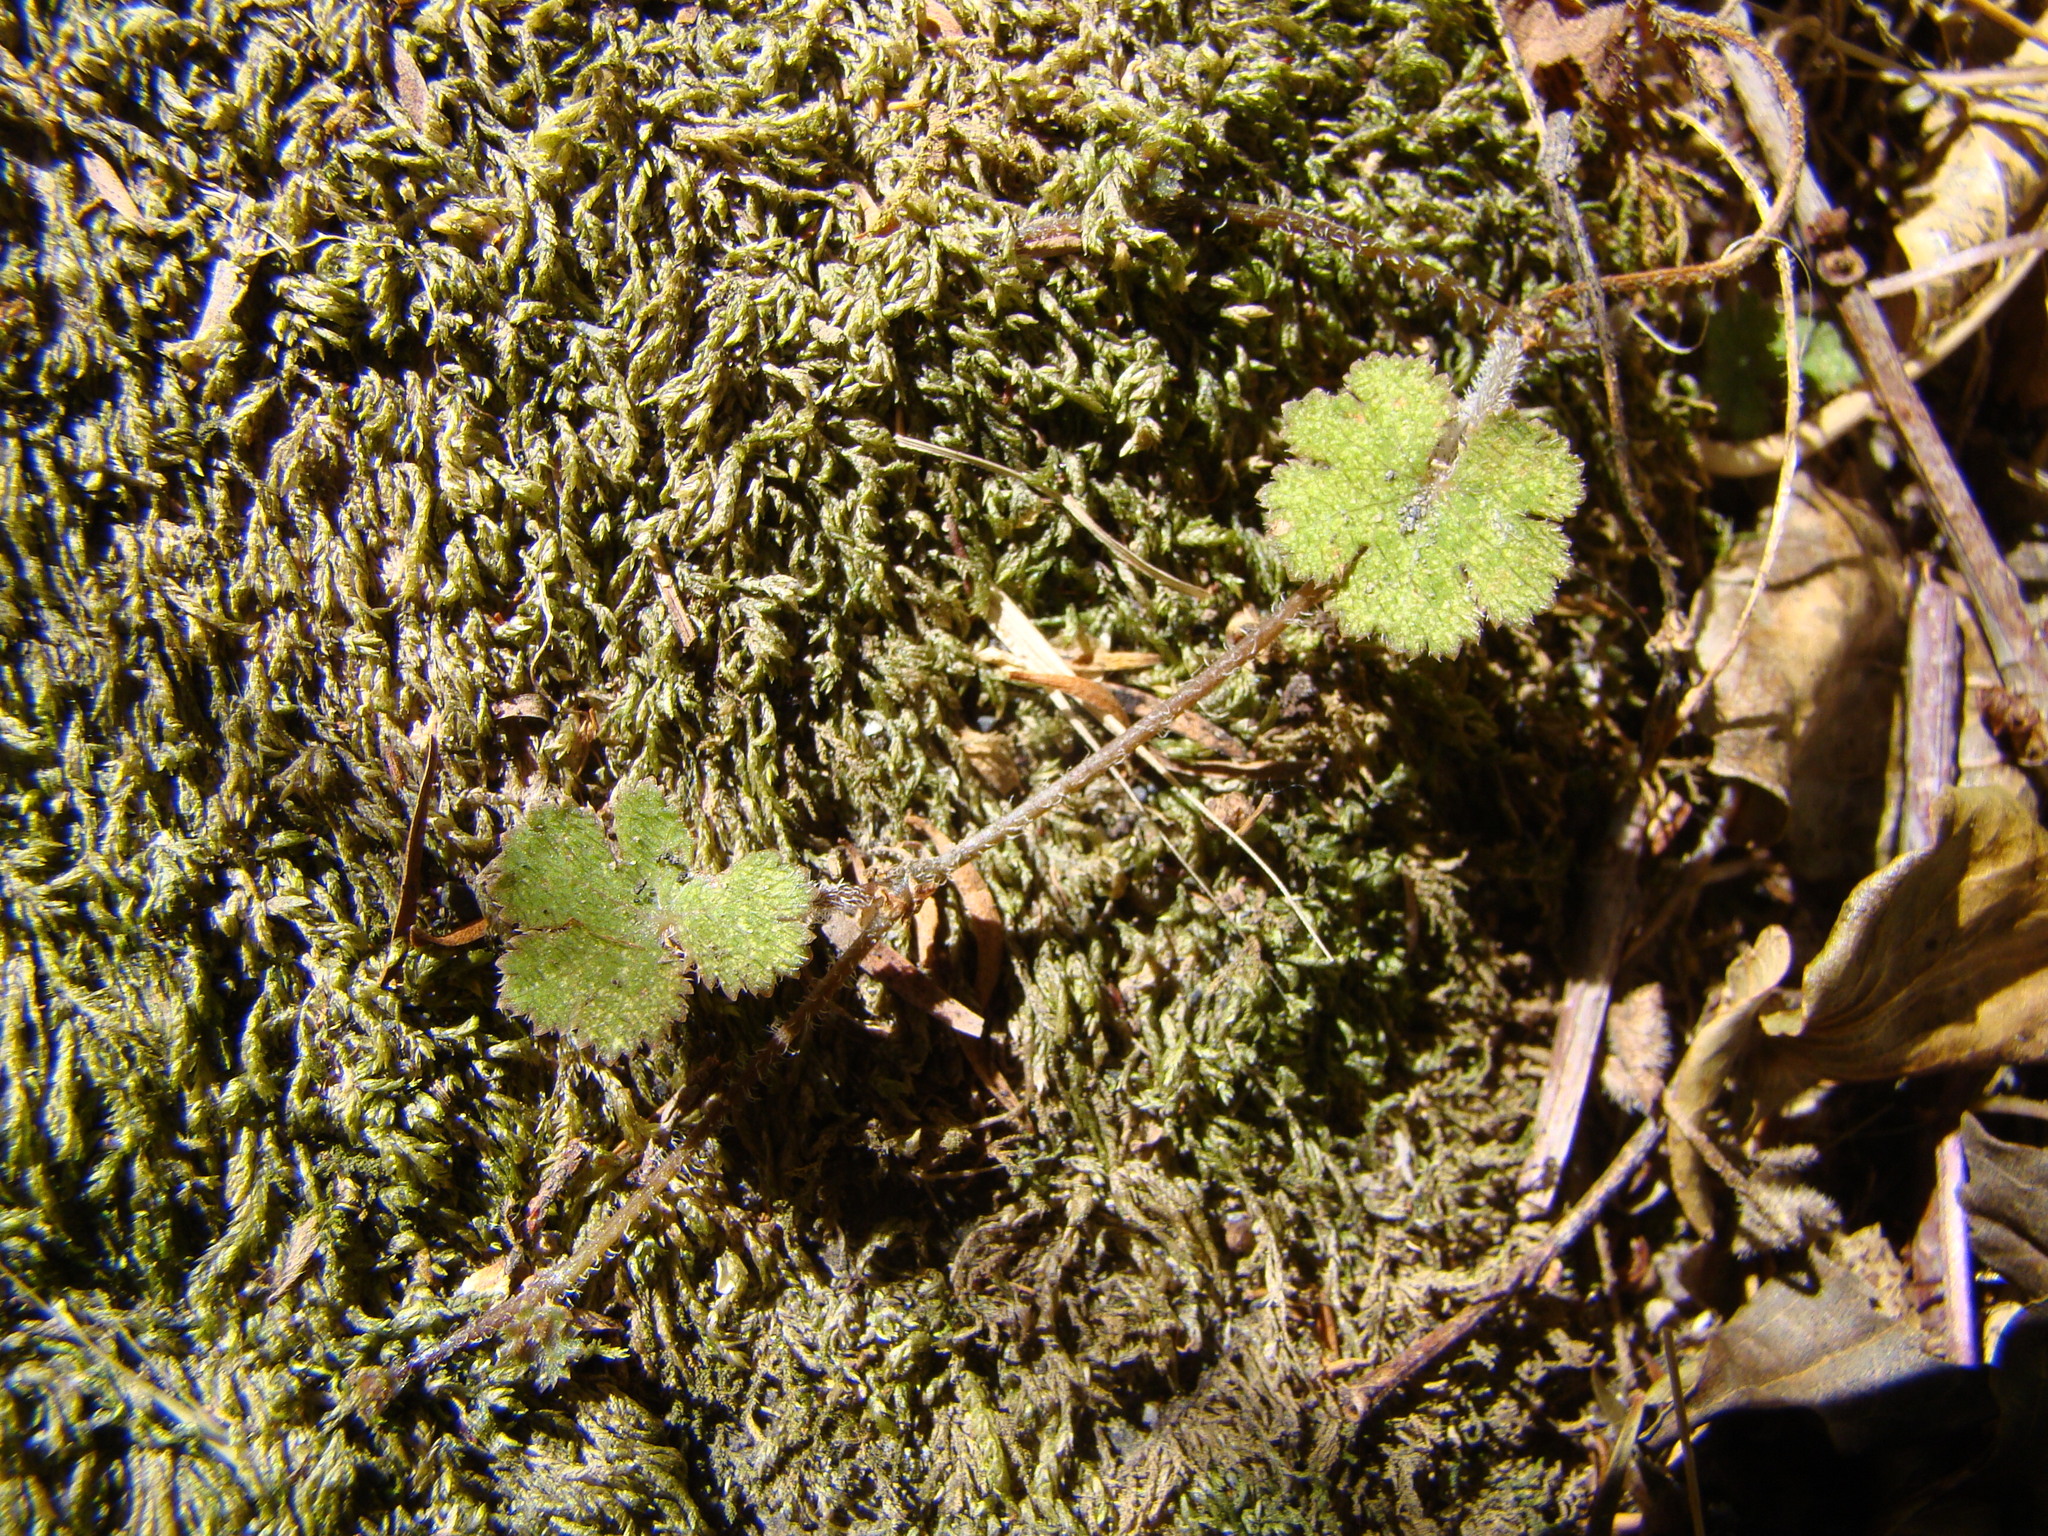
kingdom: Plantae
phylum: Tracheophyta
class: Magnoliopsida
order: Apiales
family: Araliaceae
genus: Hydrocotyle
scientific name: Hydrocotyle moschata
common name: Hairy pennywort
